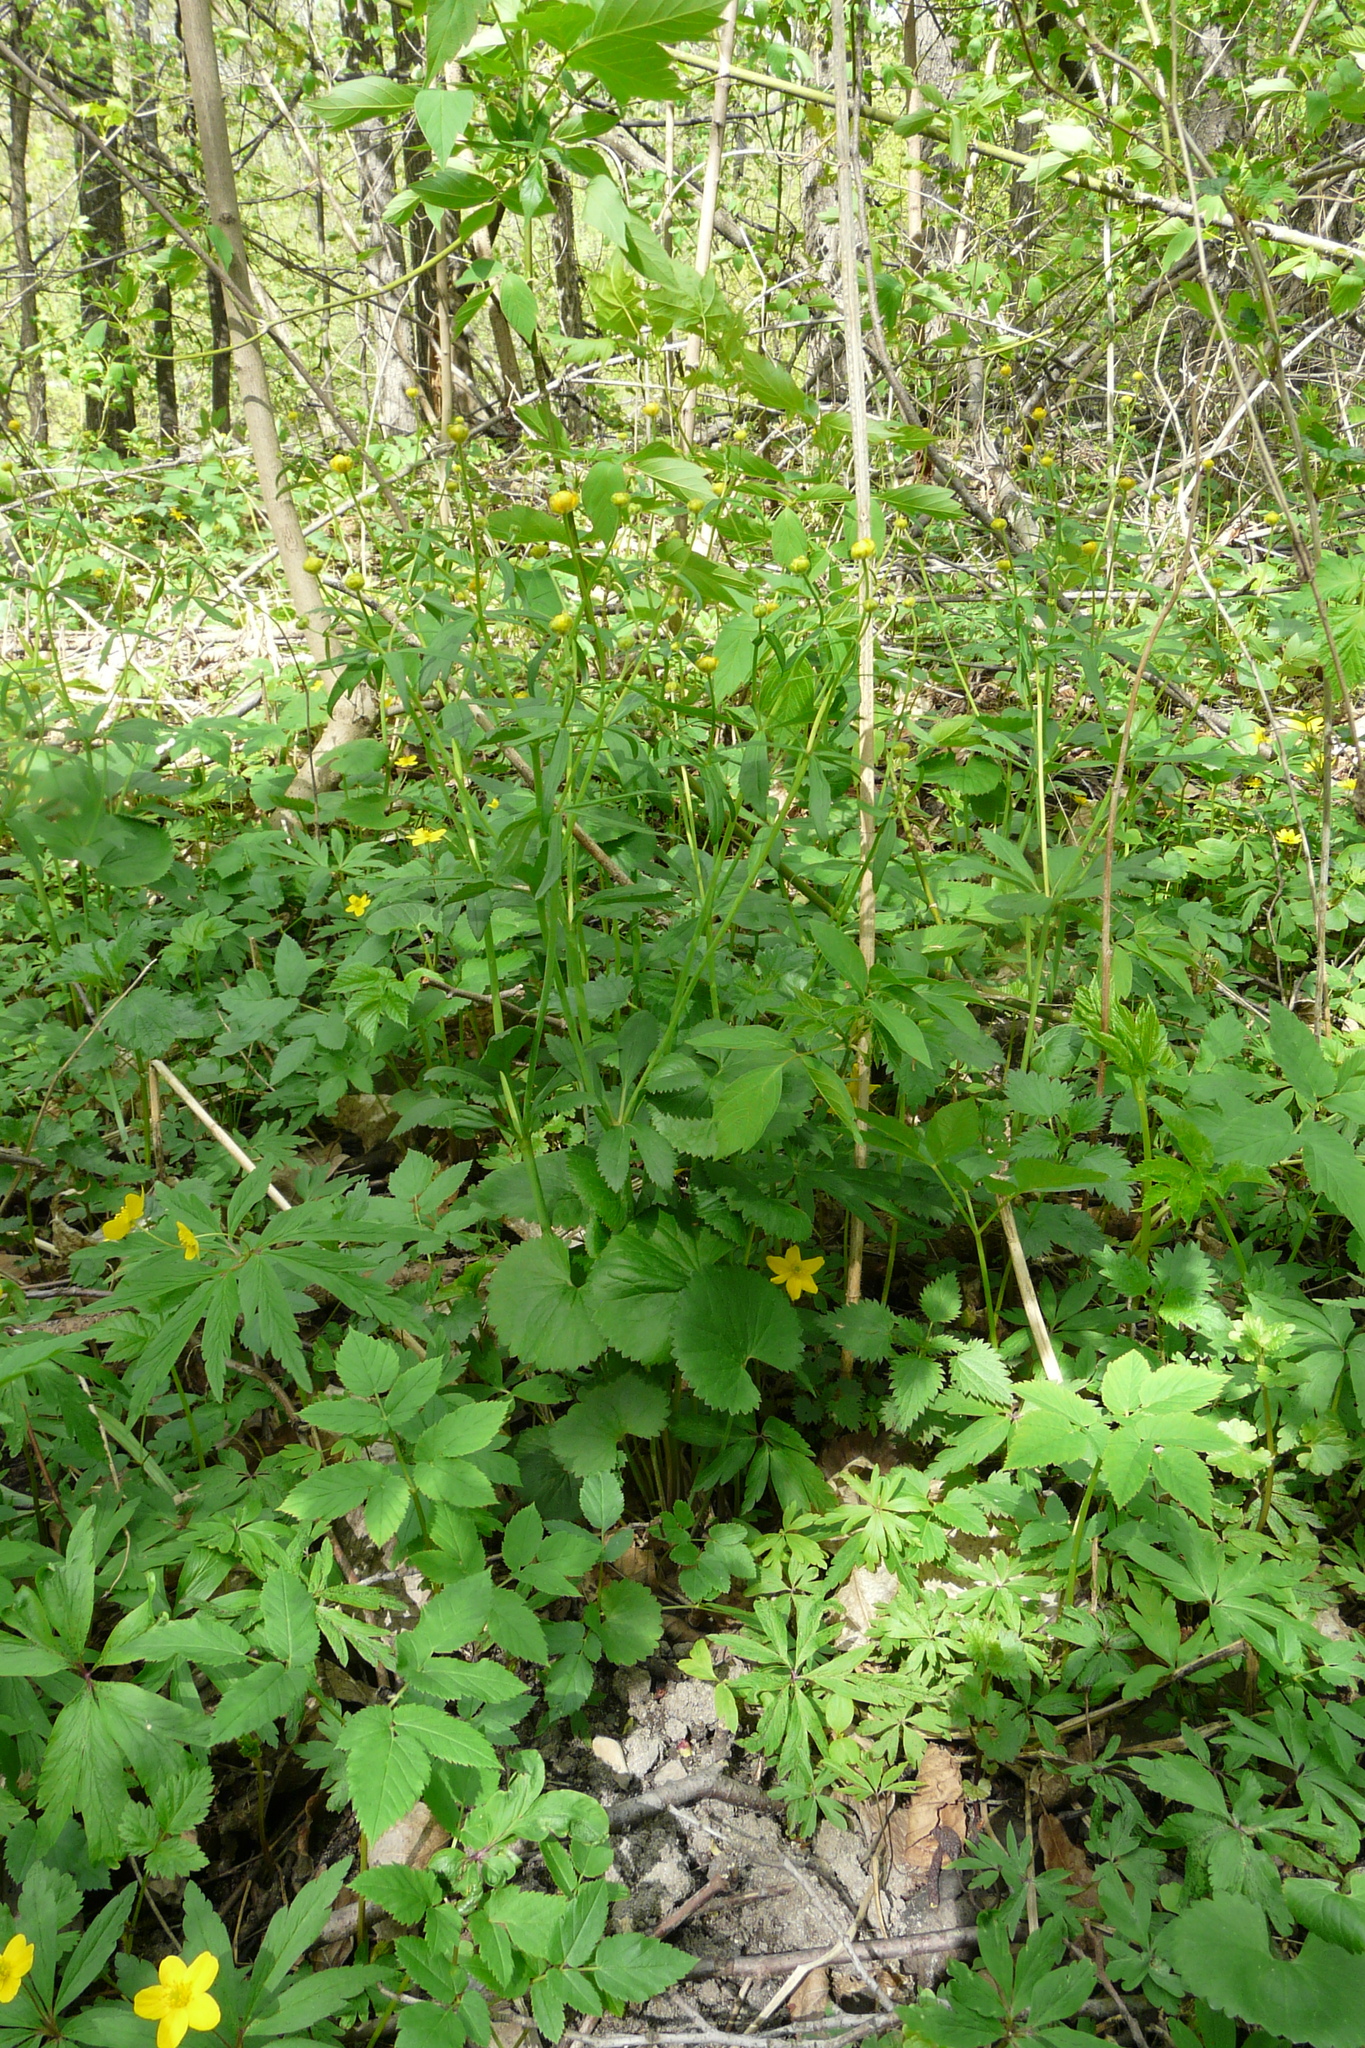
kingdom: Plantae
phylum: Tracheophyta
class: Magnoliopsida
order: Ranunculales
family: Ranunculaceae
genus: Ranunculus
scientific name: Ranunculus cassubicus
